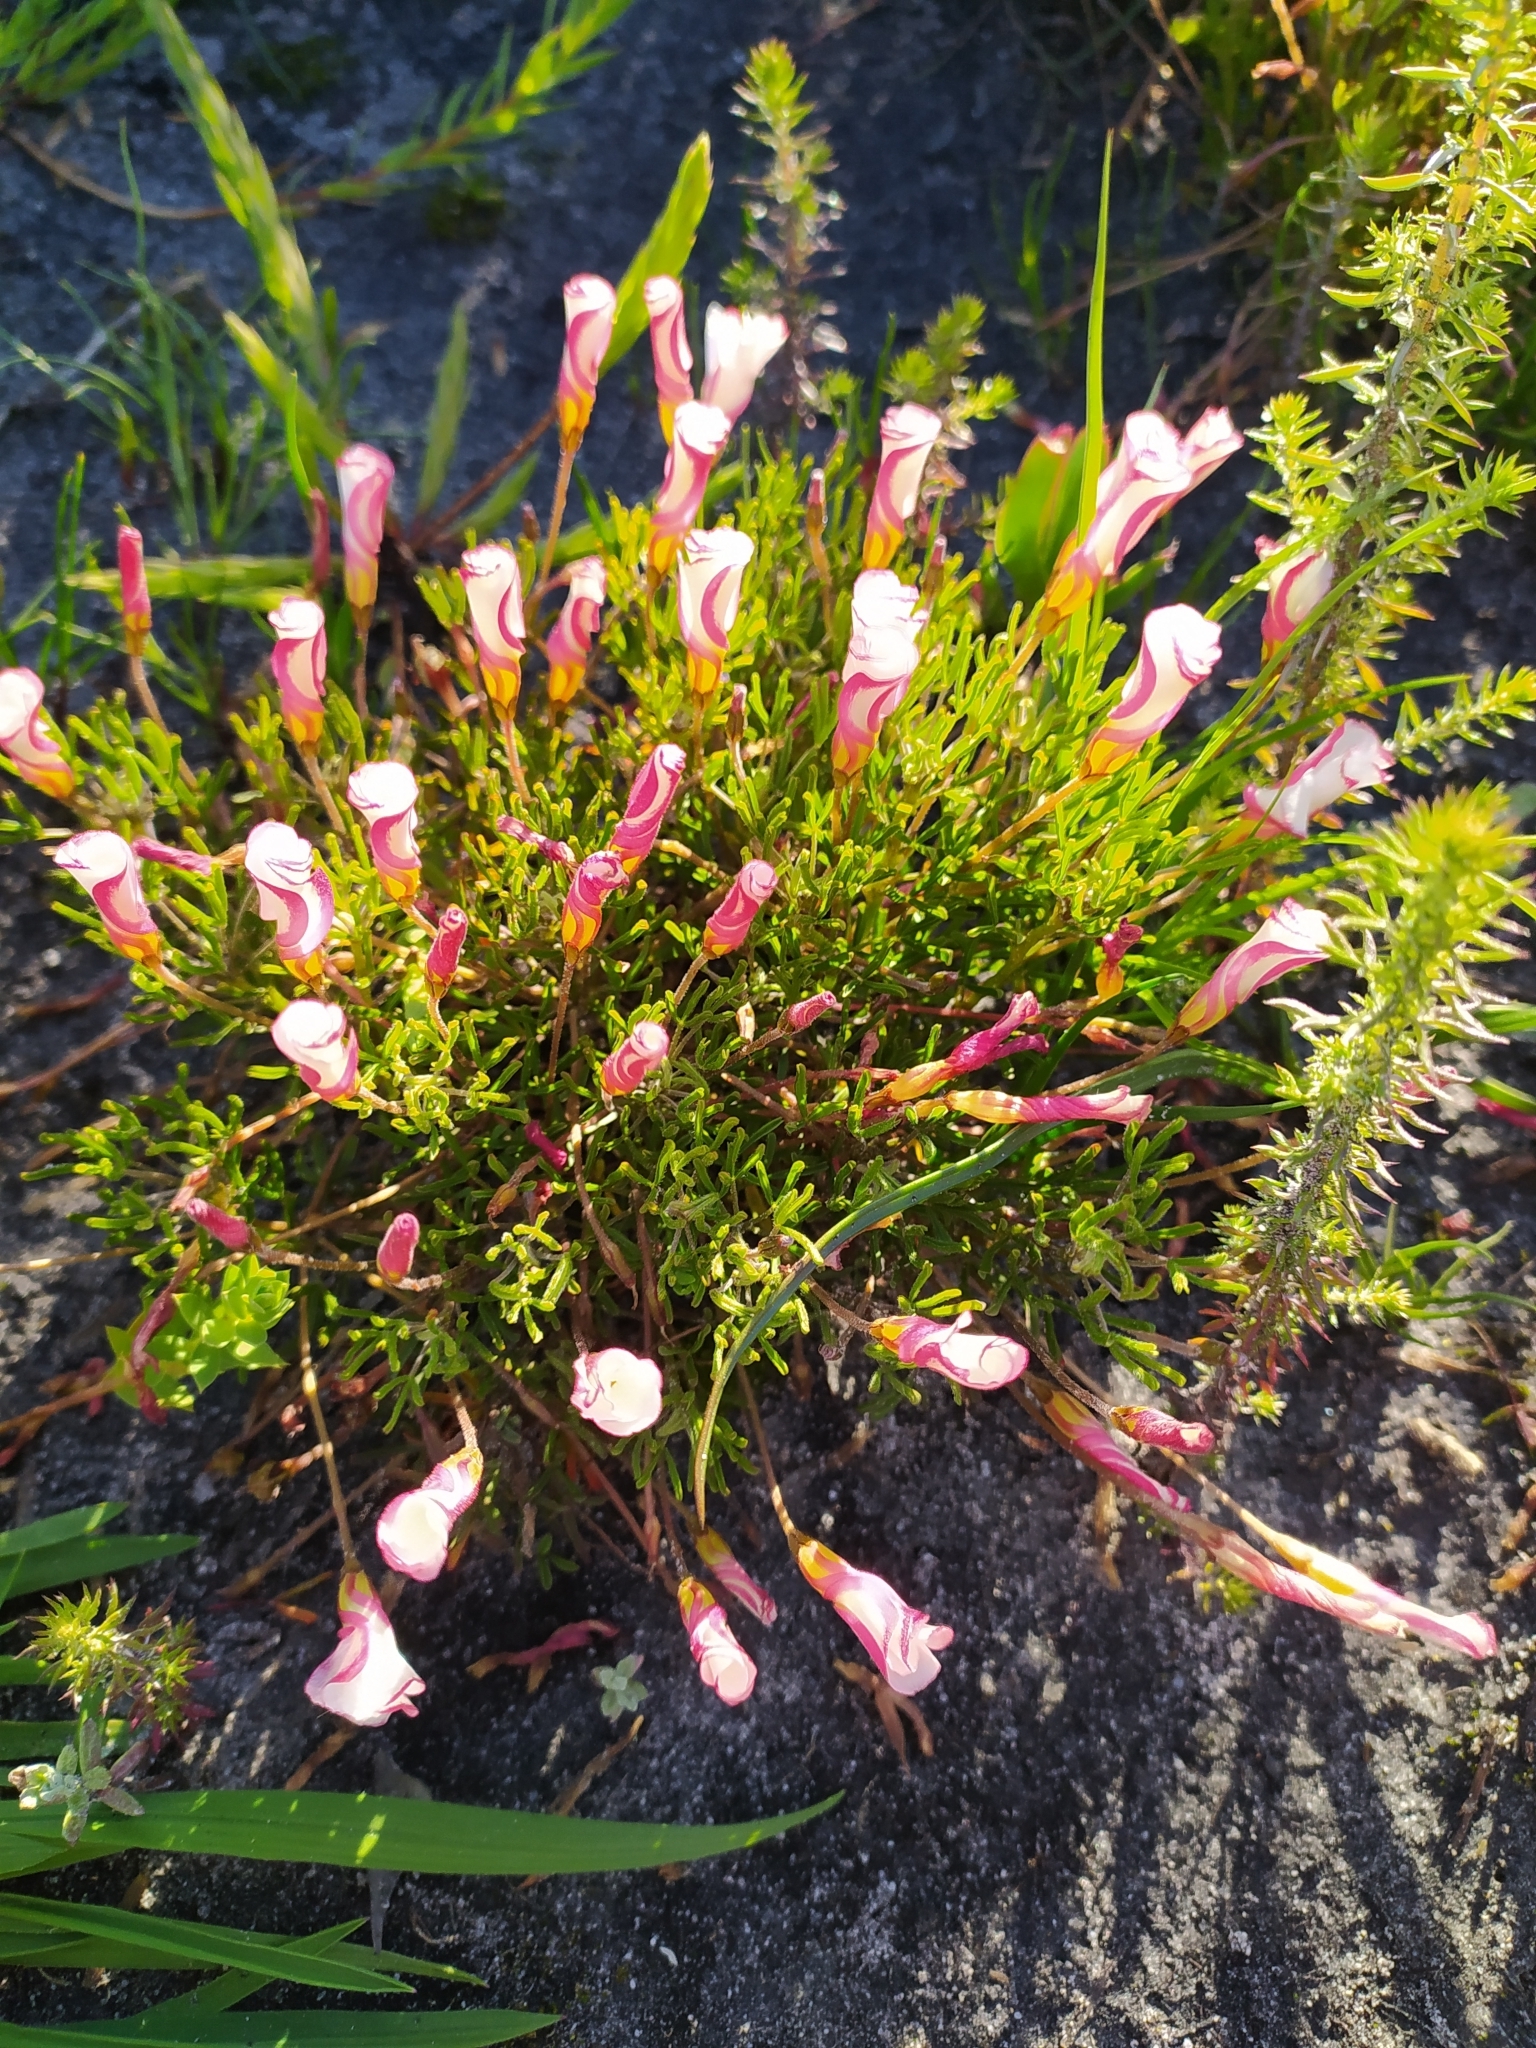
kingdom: Plantae
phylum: Tracheophyta
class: Magnoliopsida
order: Oxalidales
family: Oxalidaceae
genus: Oxalis
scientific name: Oxalis versicolor
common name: Peppermint rock oxalis
